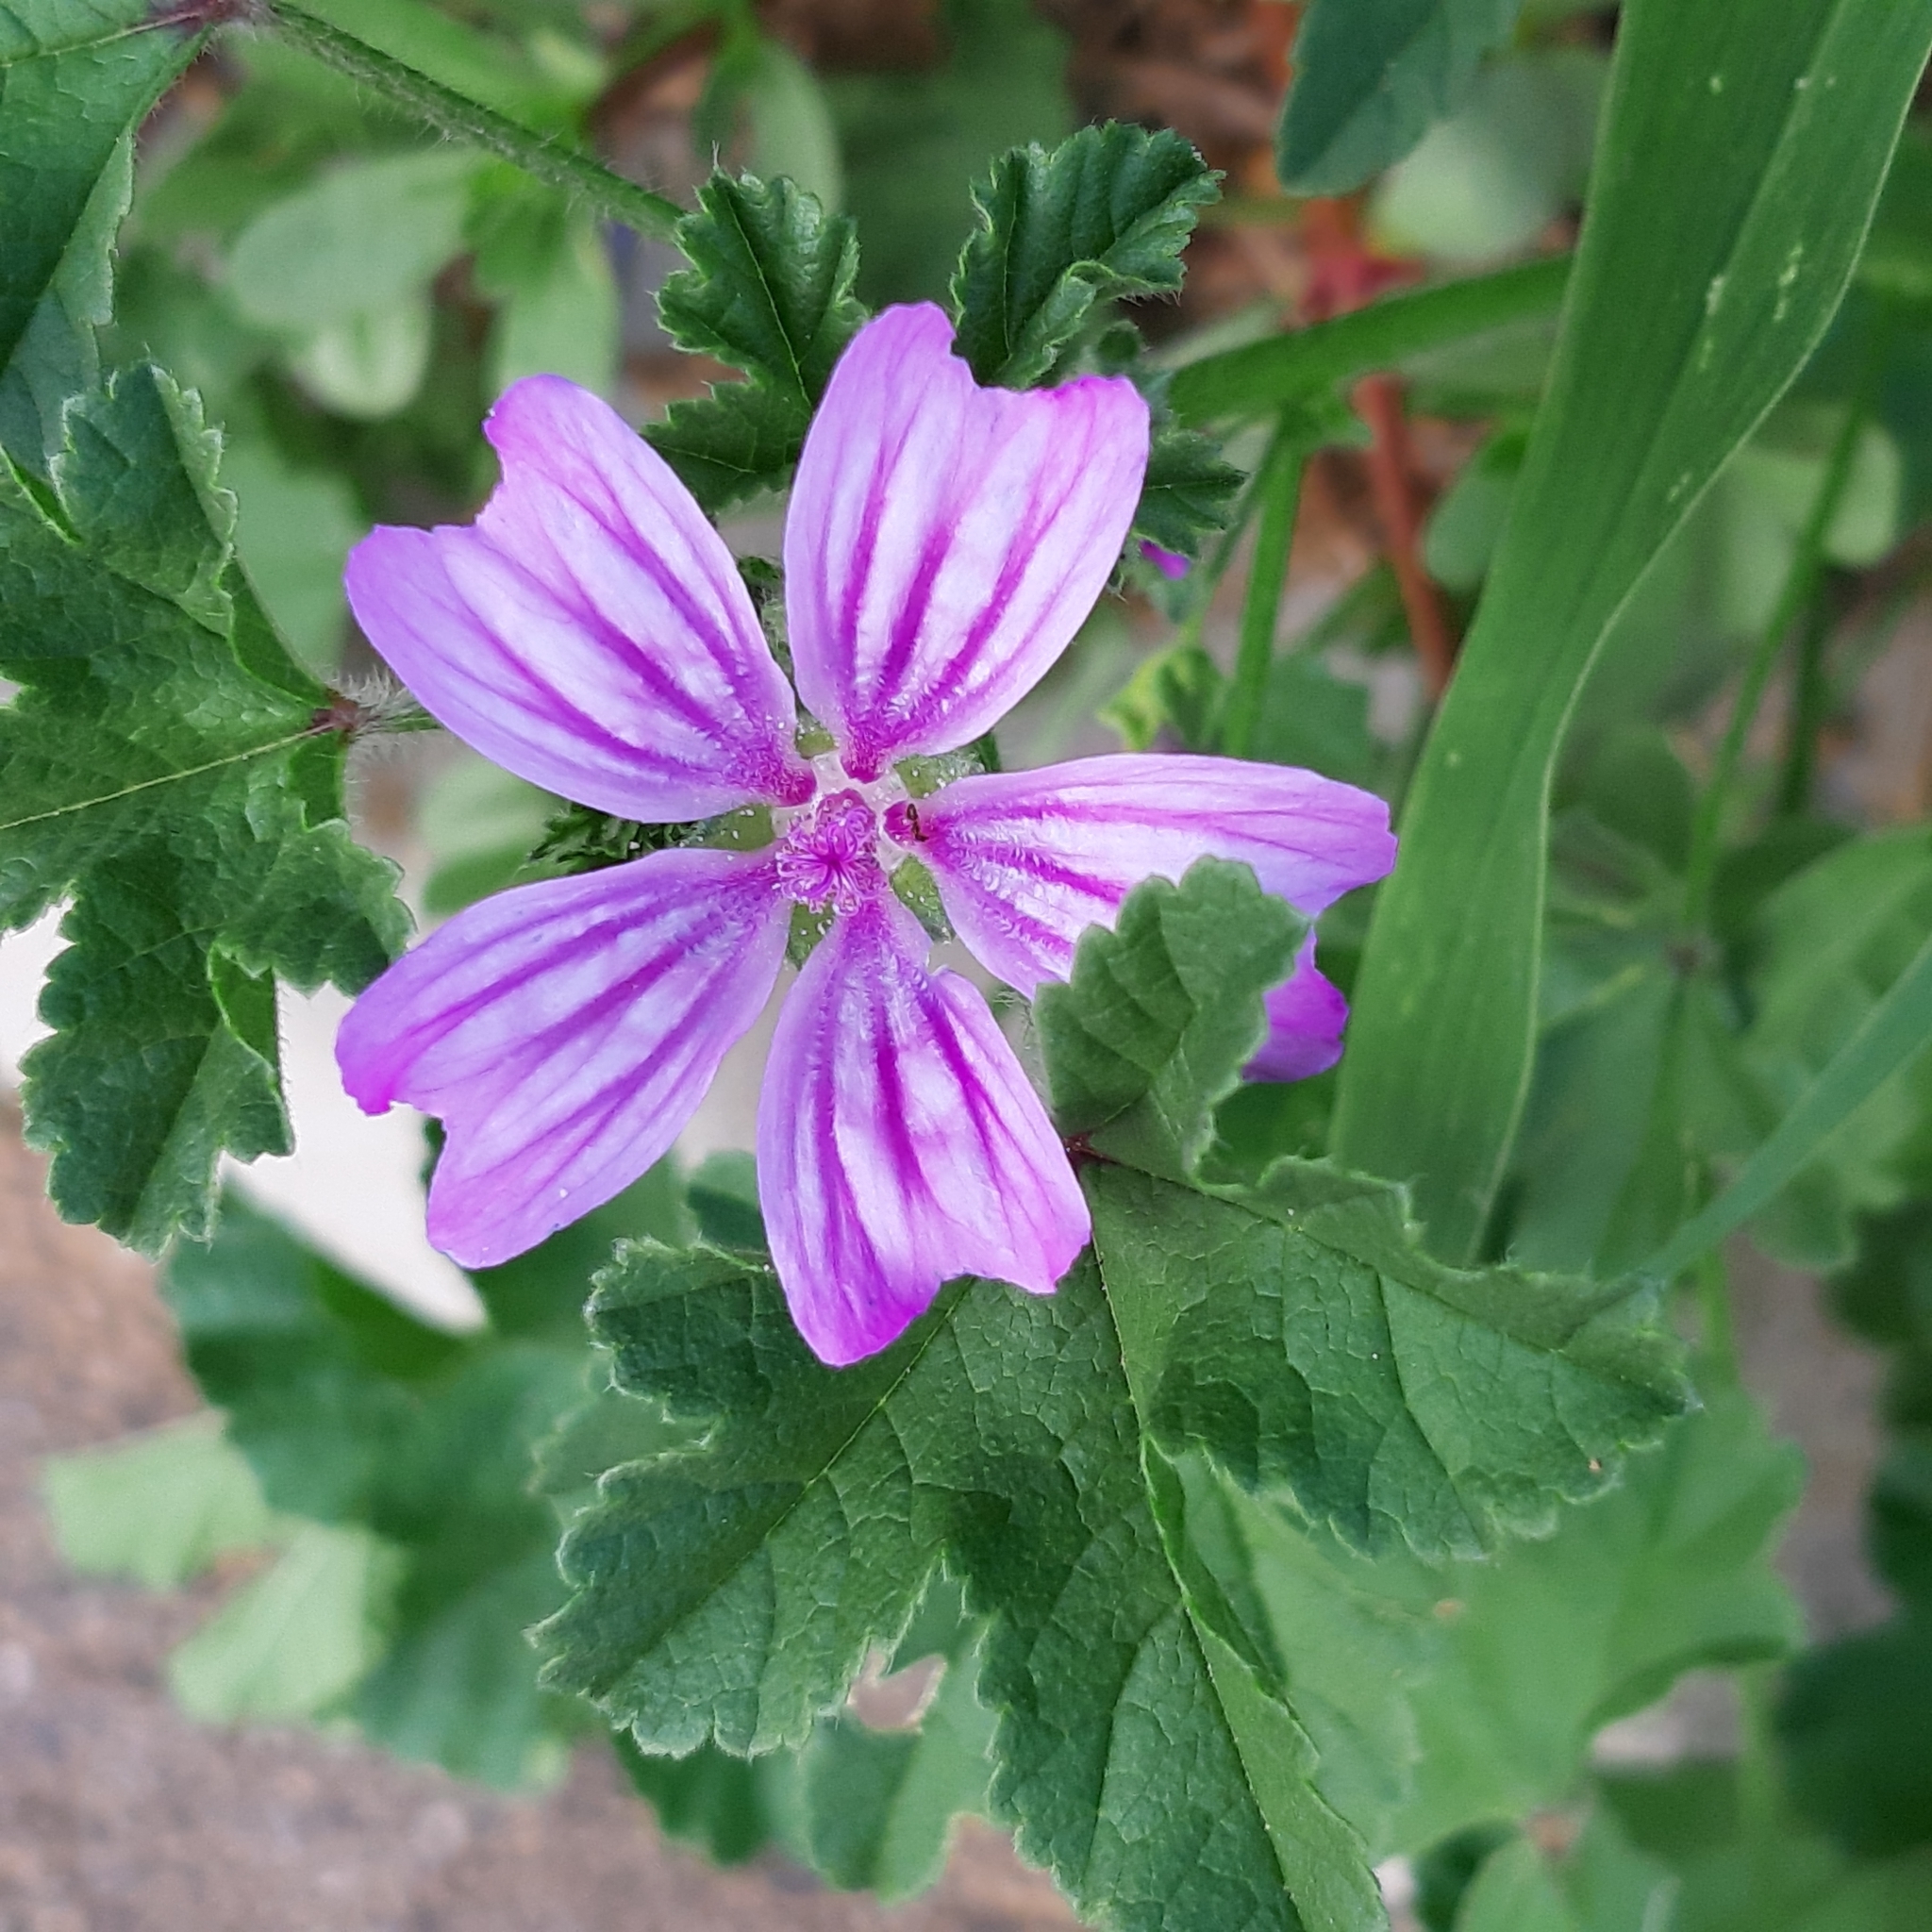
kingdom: Plantae
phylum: Tracheophyta
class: Magnoliopsida
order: Malvales
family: Malvaceae
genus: Malva
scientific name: Malva sylvestris
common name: Common mallow
